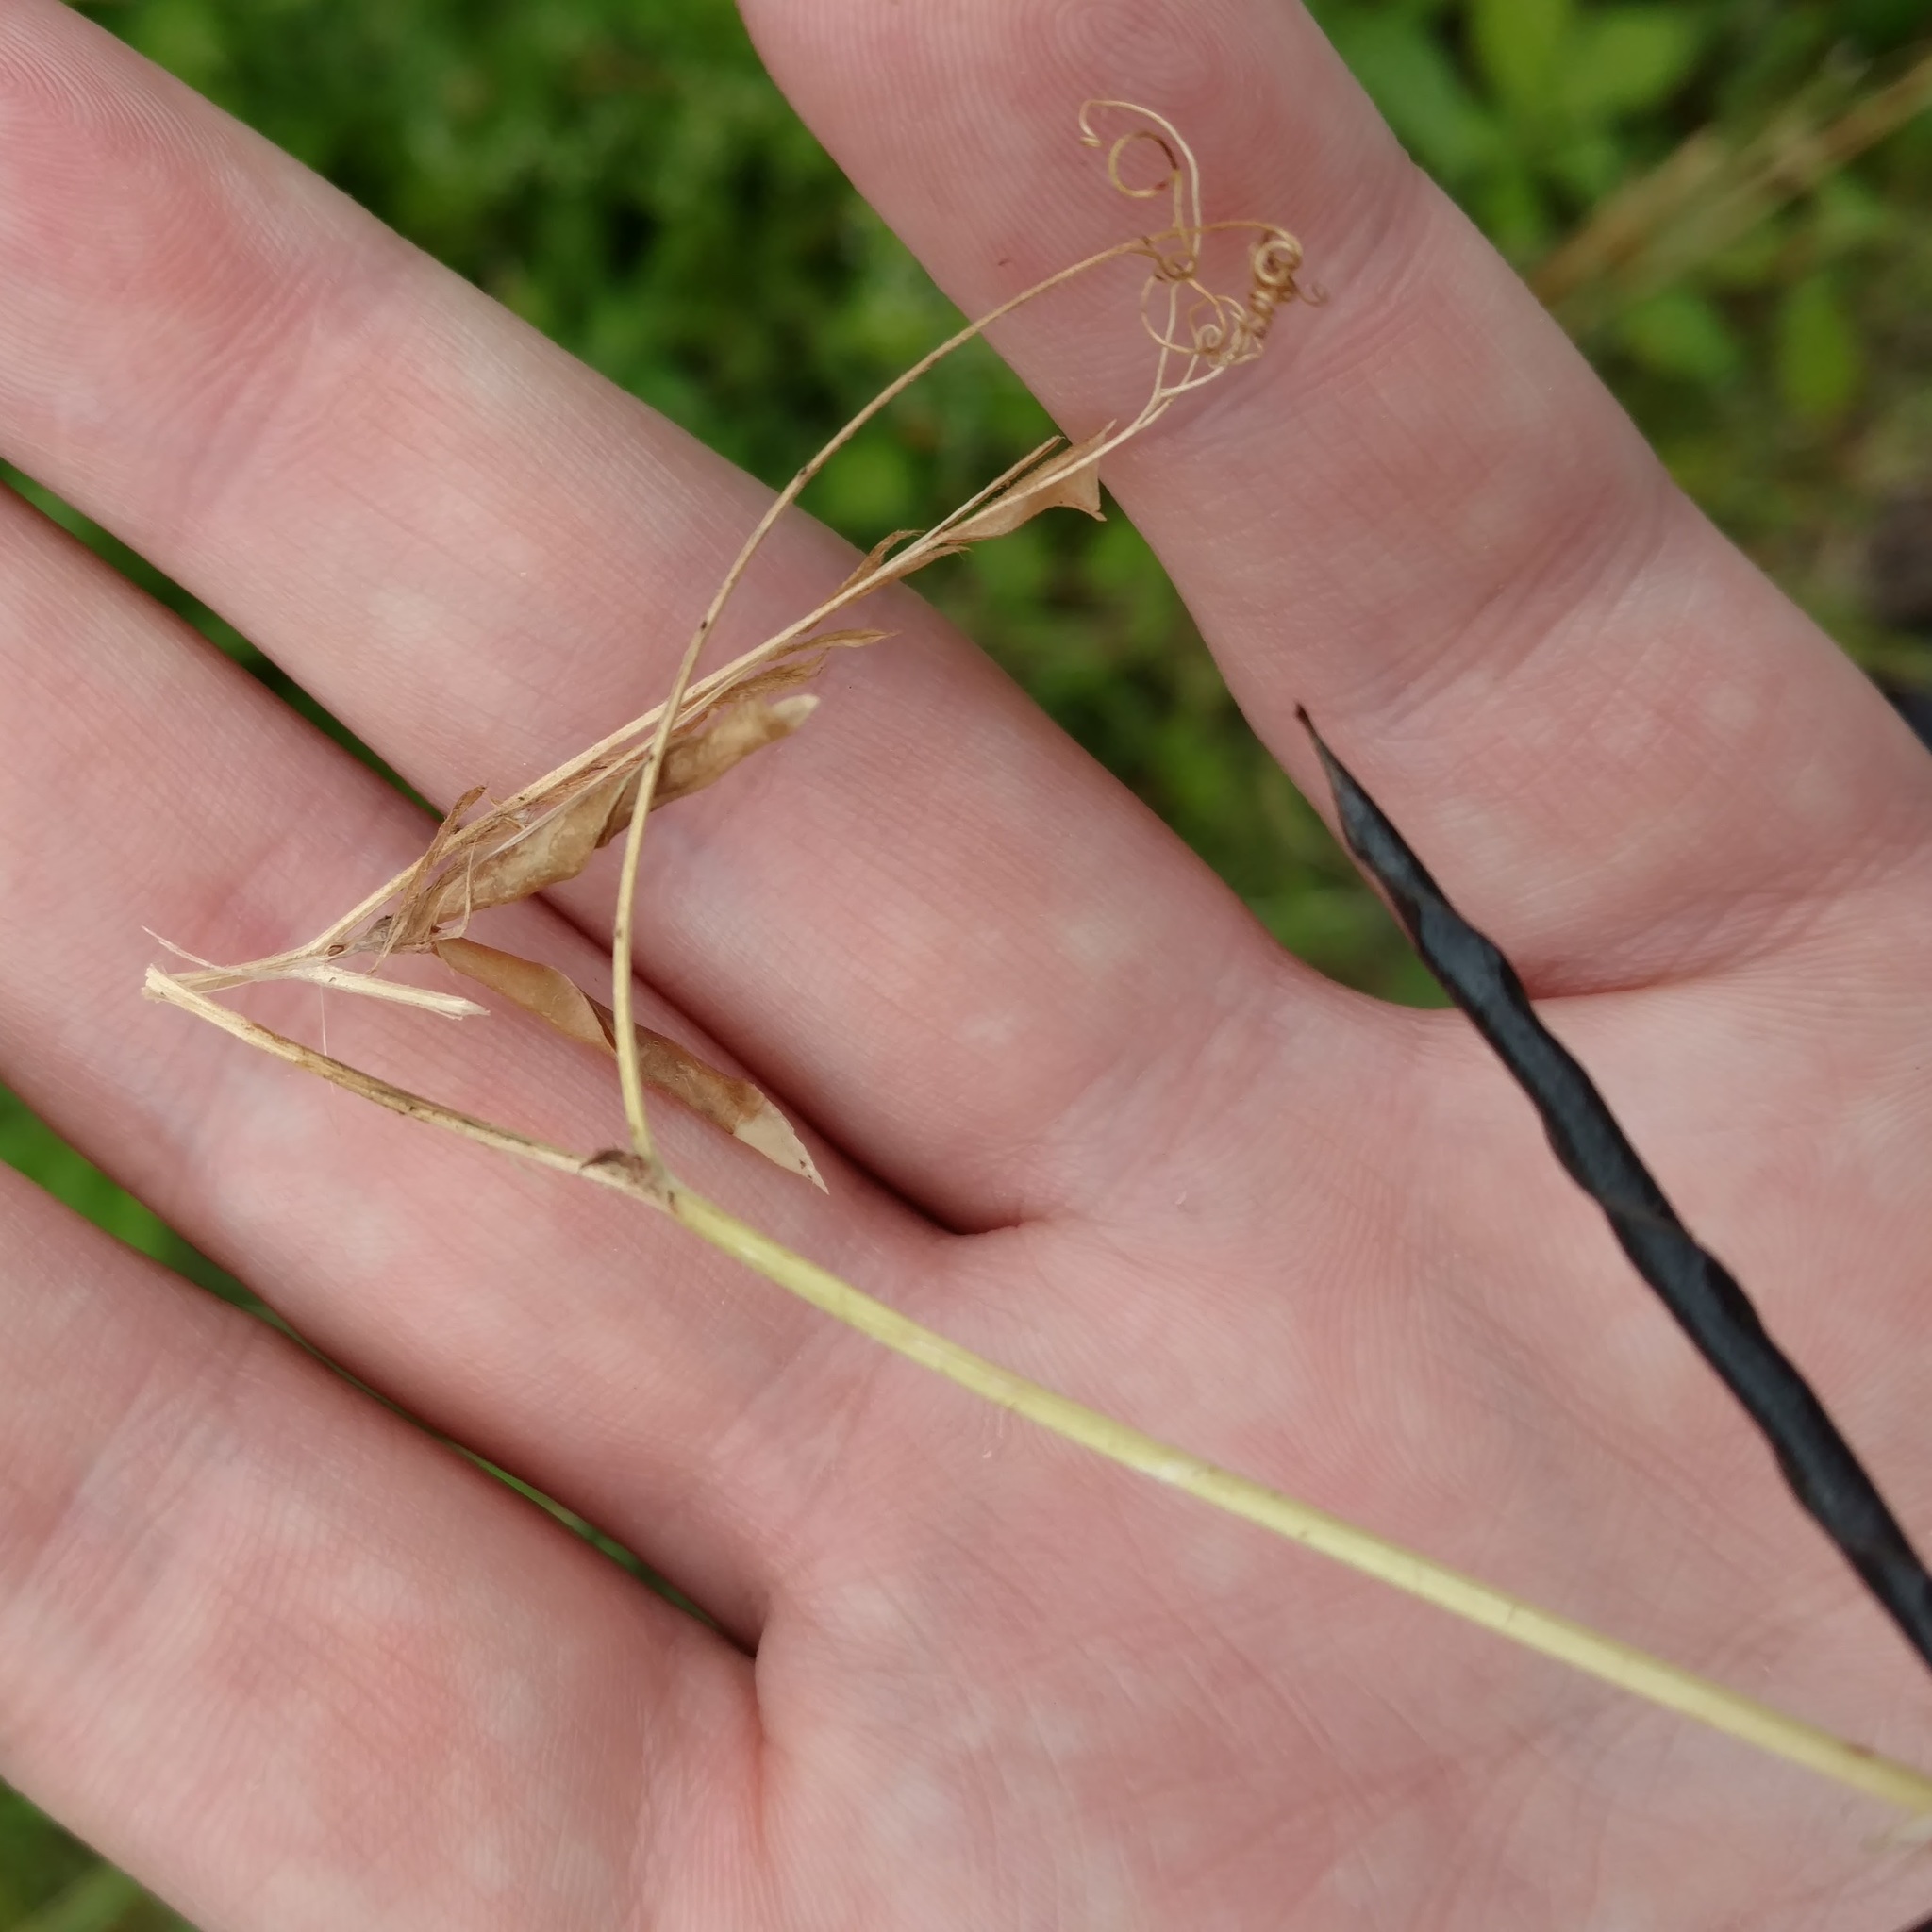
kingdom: Plantae
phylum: Tracheophyta
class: Magnoliopsida
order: Fabales
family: Fabaceae
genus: Vicia
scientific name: Vicia sativa
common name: Garden vetch
